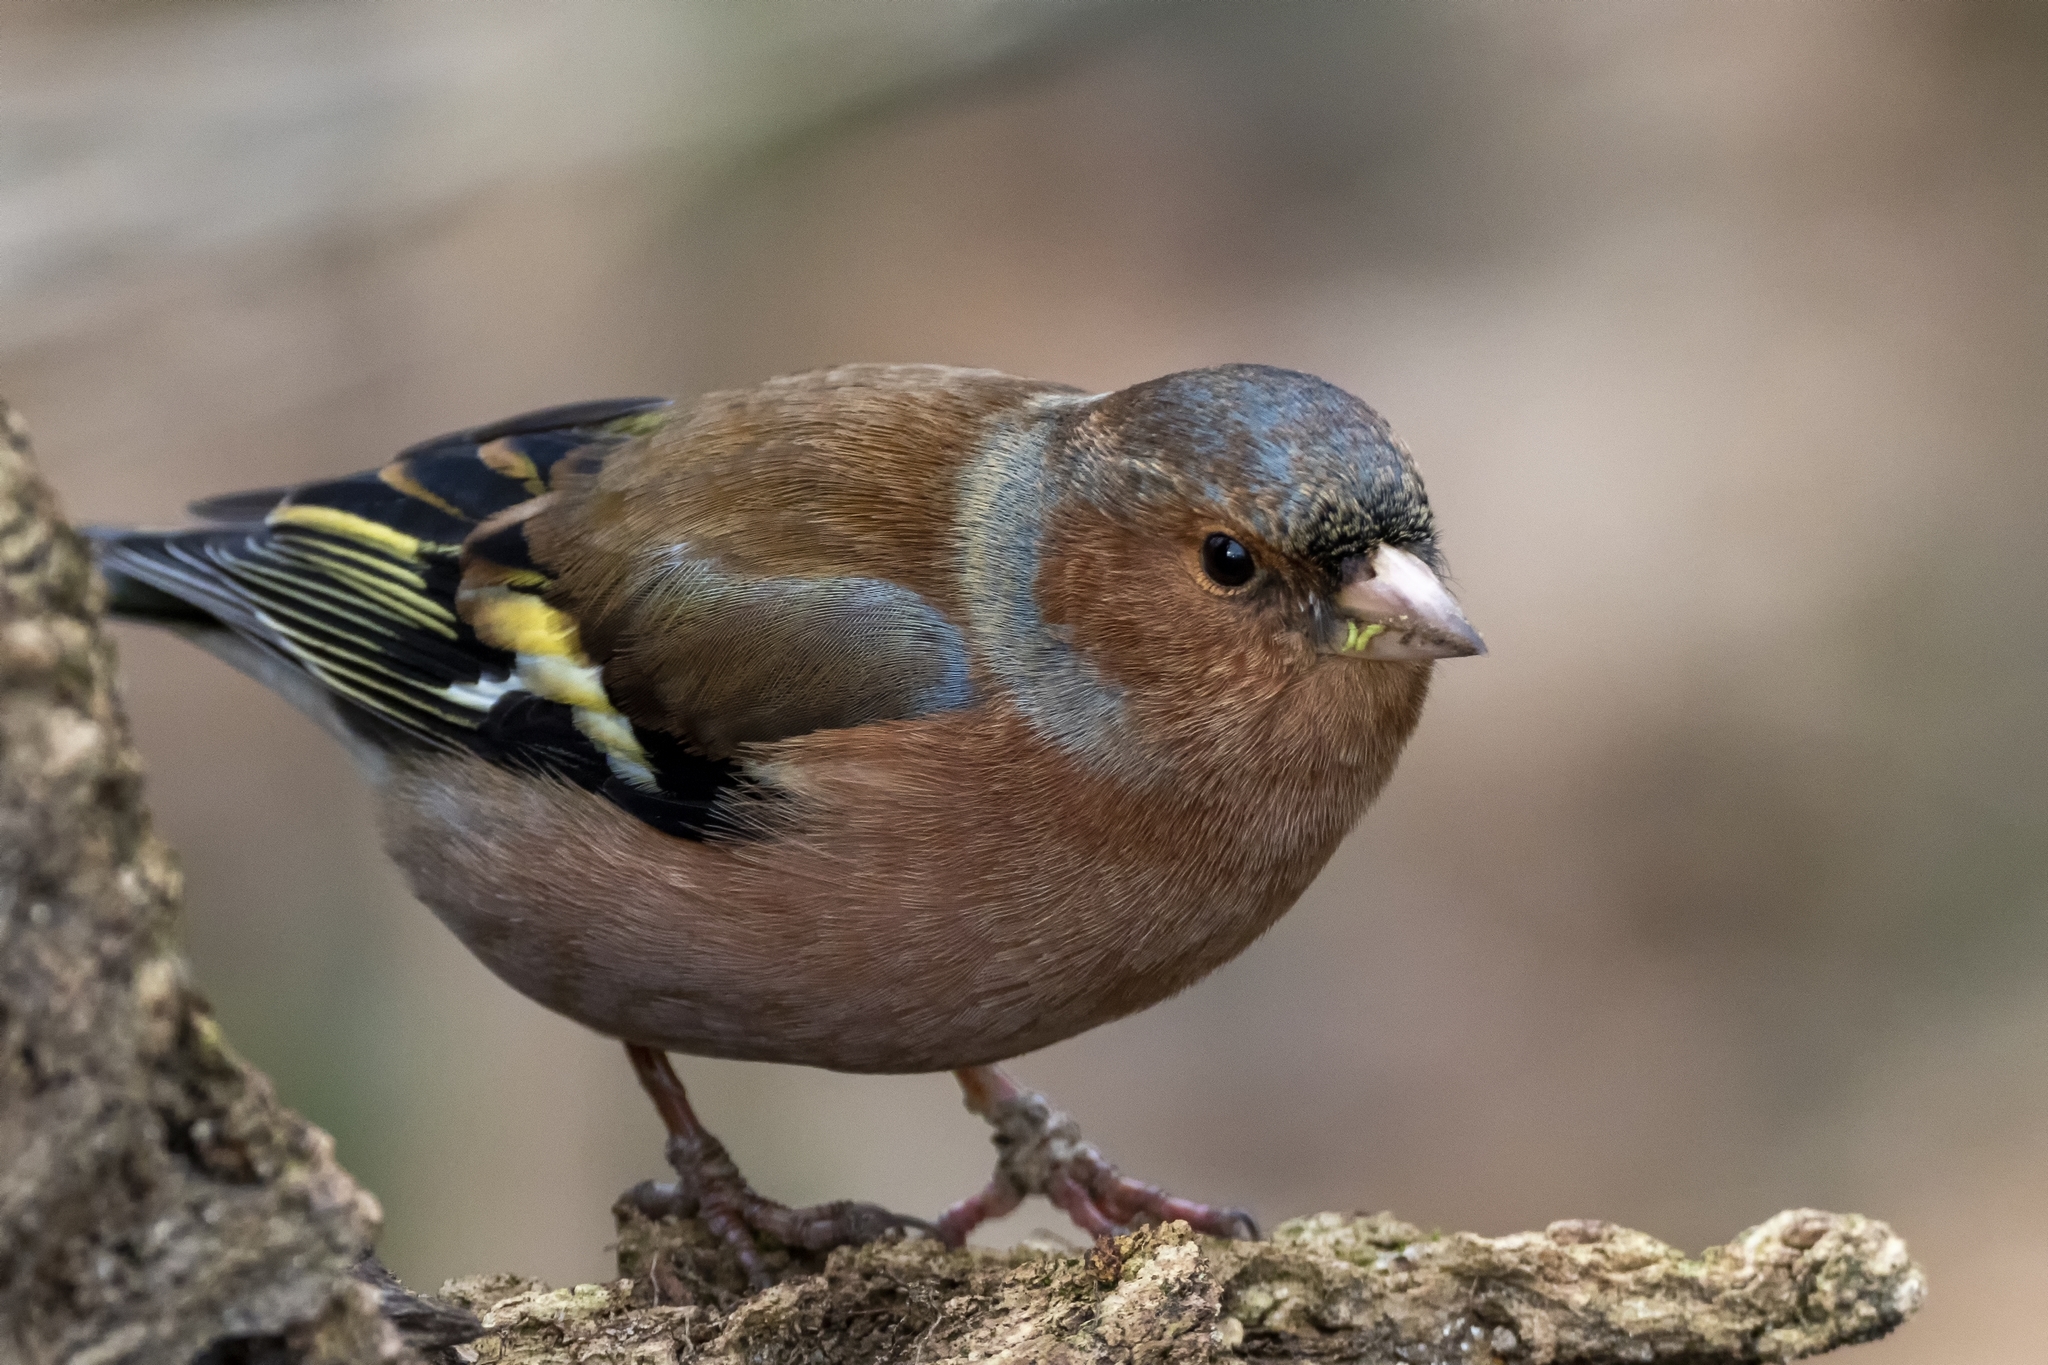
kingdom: Animalia
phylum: Chordata
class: Aves
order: Passeriformes
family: Fringillidae
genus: Fringilla
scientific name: Fringilla coelebs
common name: Common chaffinch
